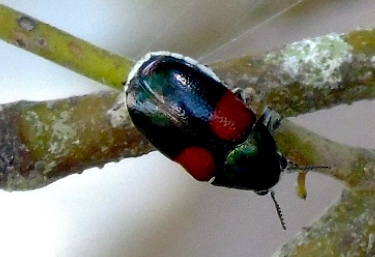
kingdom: Animalia
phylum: Arthropoda
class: Insecta
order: Coleoptera
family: Chrysomelidae
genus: Megalostomis
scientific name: Megalostomis pyropyga
